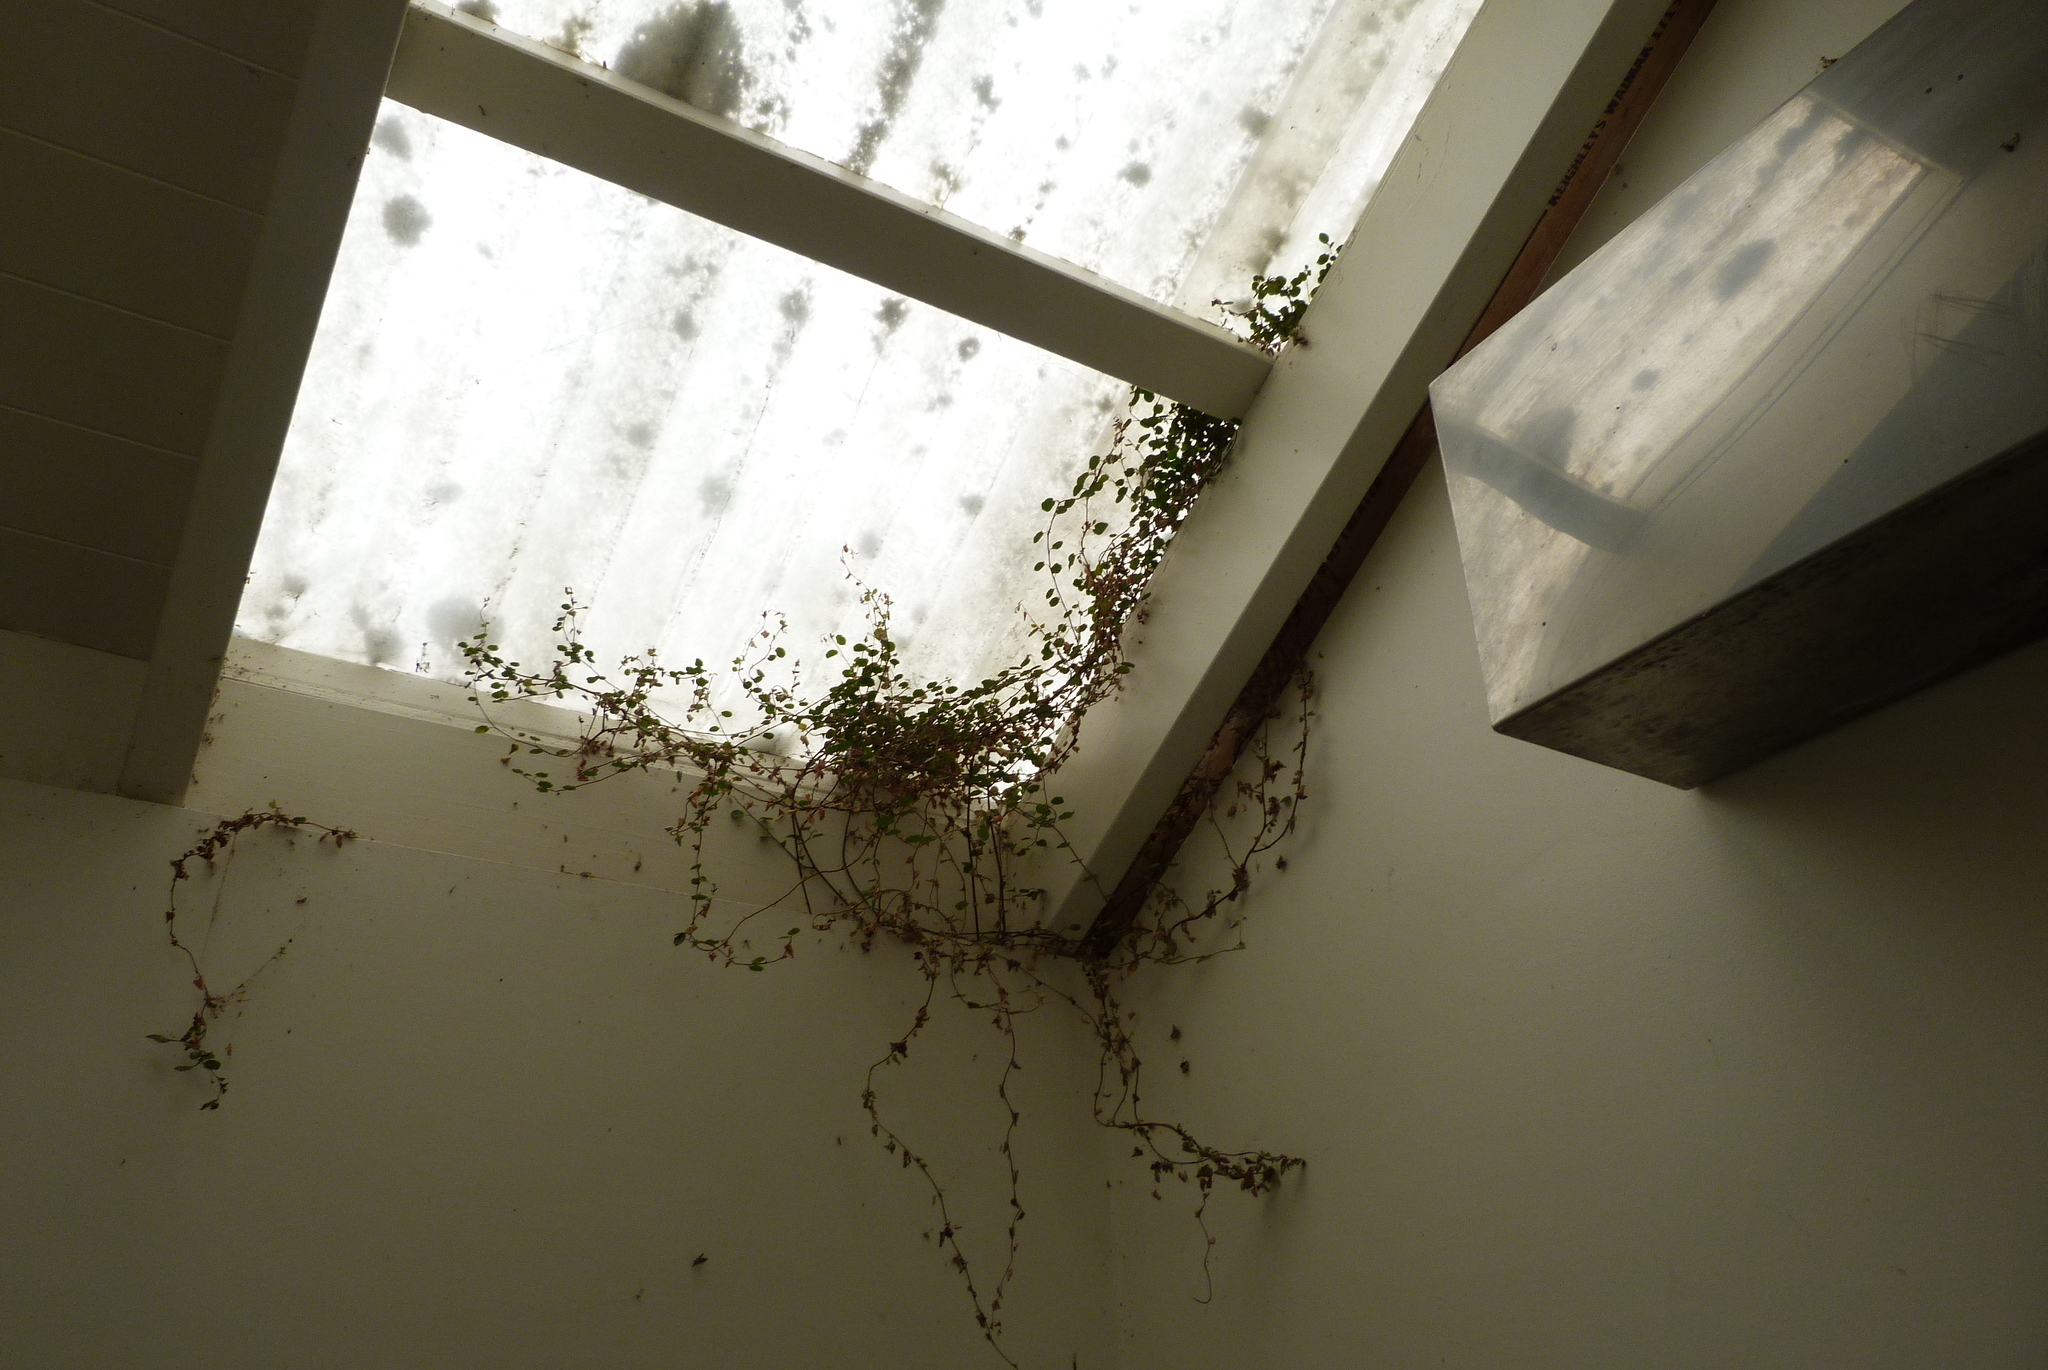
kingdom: Plantae
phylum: Tracheophyta
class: Magnoliopsida
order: Caryophyllales
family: Polygonaceae
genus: Muehlenbeckia
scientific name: Muehlenbeckia complexa
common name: Wireplant
